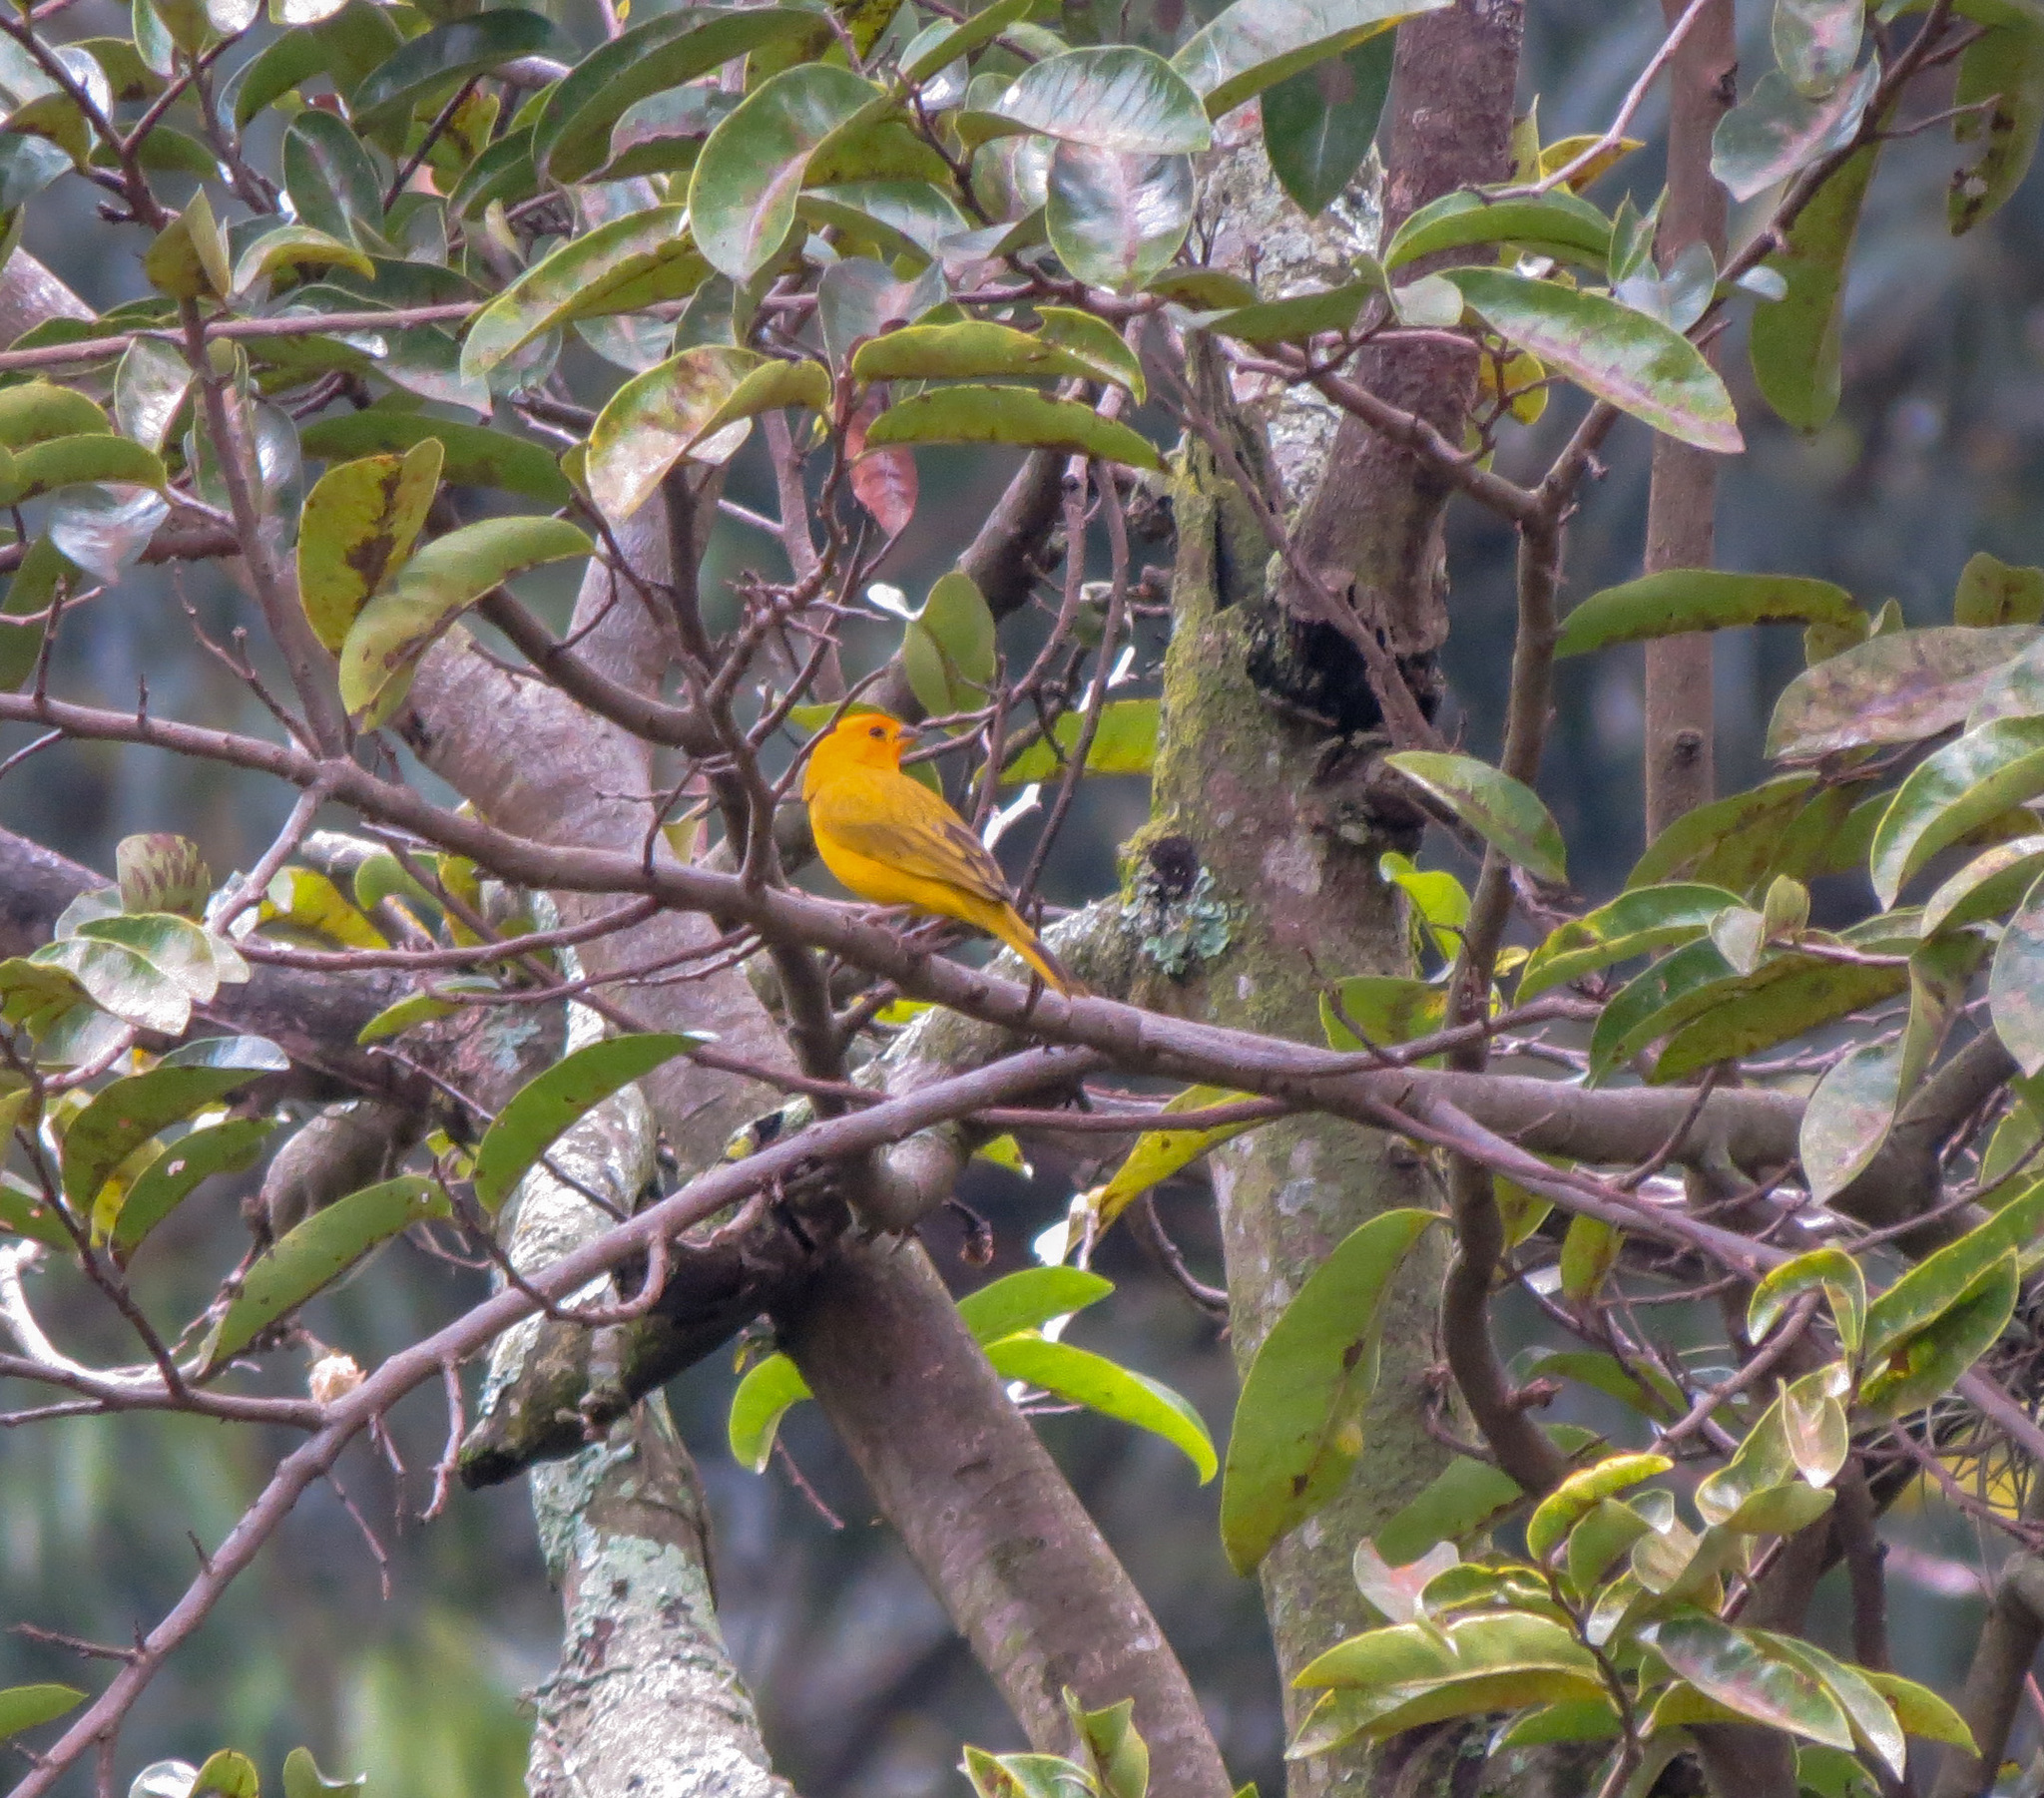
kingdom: Animalia
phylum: Chordata
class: Aves
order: Passeriformes
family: Thraupidae
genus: Sicalis
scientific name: Sicalis flaveola
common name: Saffron finch
